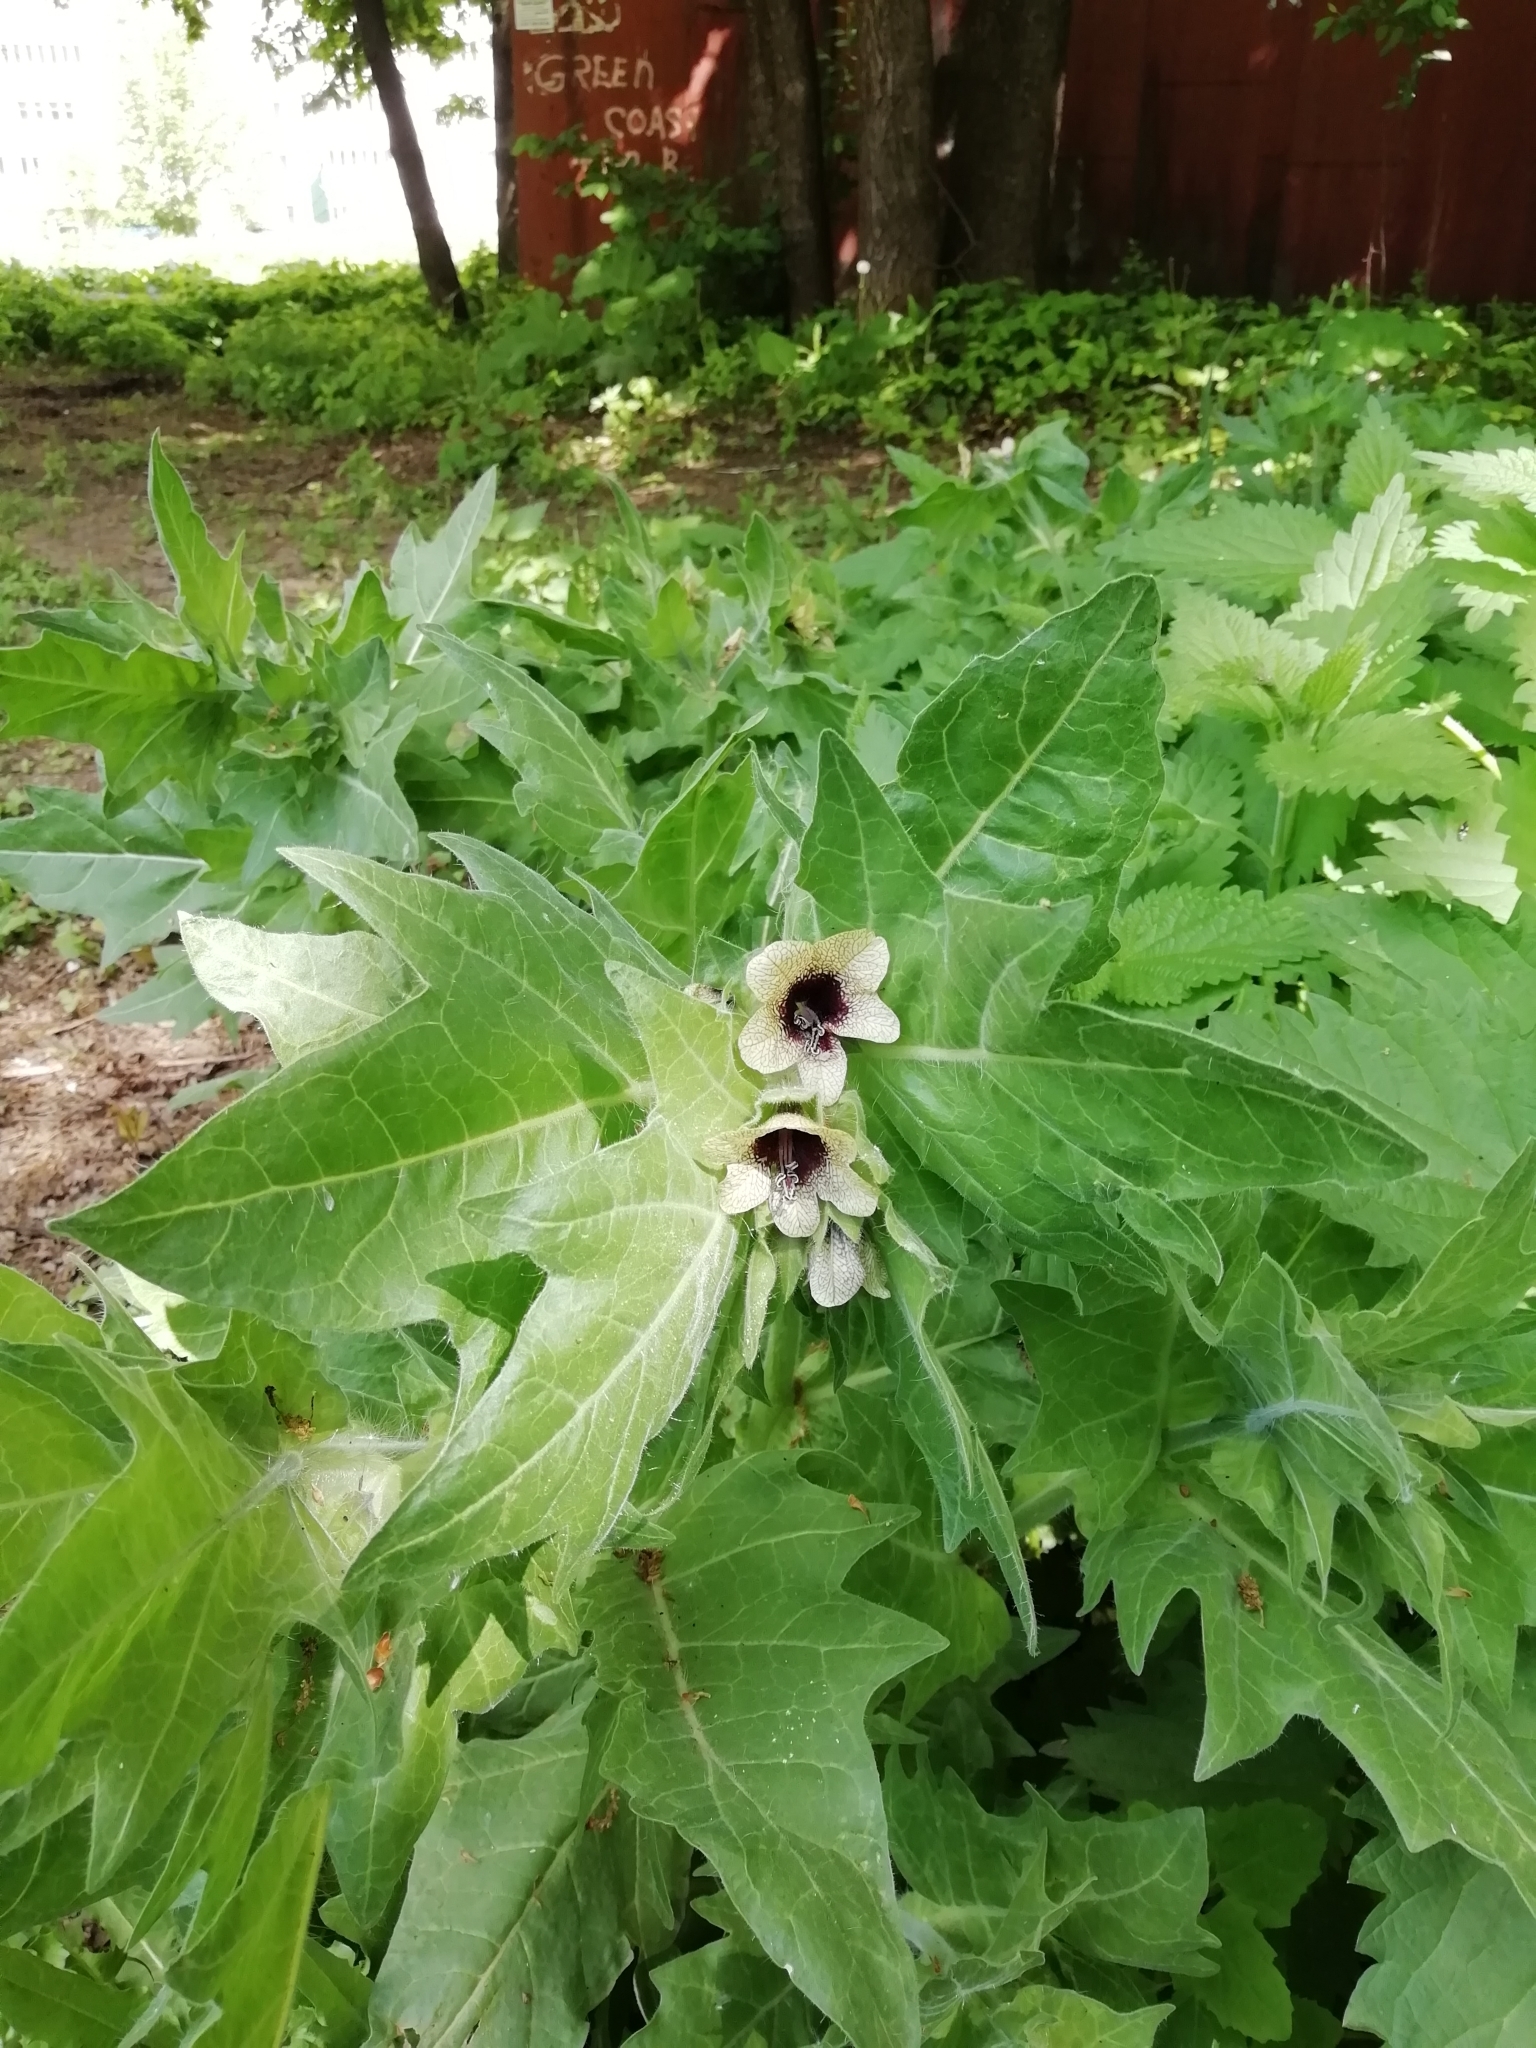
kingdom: Plantae
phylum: Tracheophyta
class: Magnoliopsida
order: Solanales
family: Solanaceae
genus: Hyoscyamus
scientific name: Hyoscyamus niger
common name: Henbane
